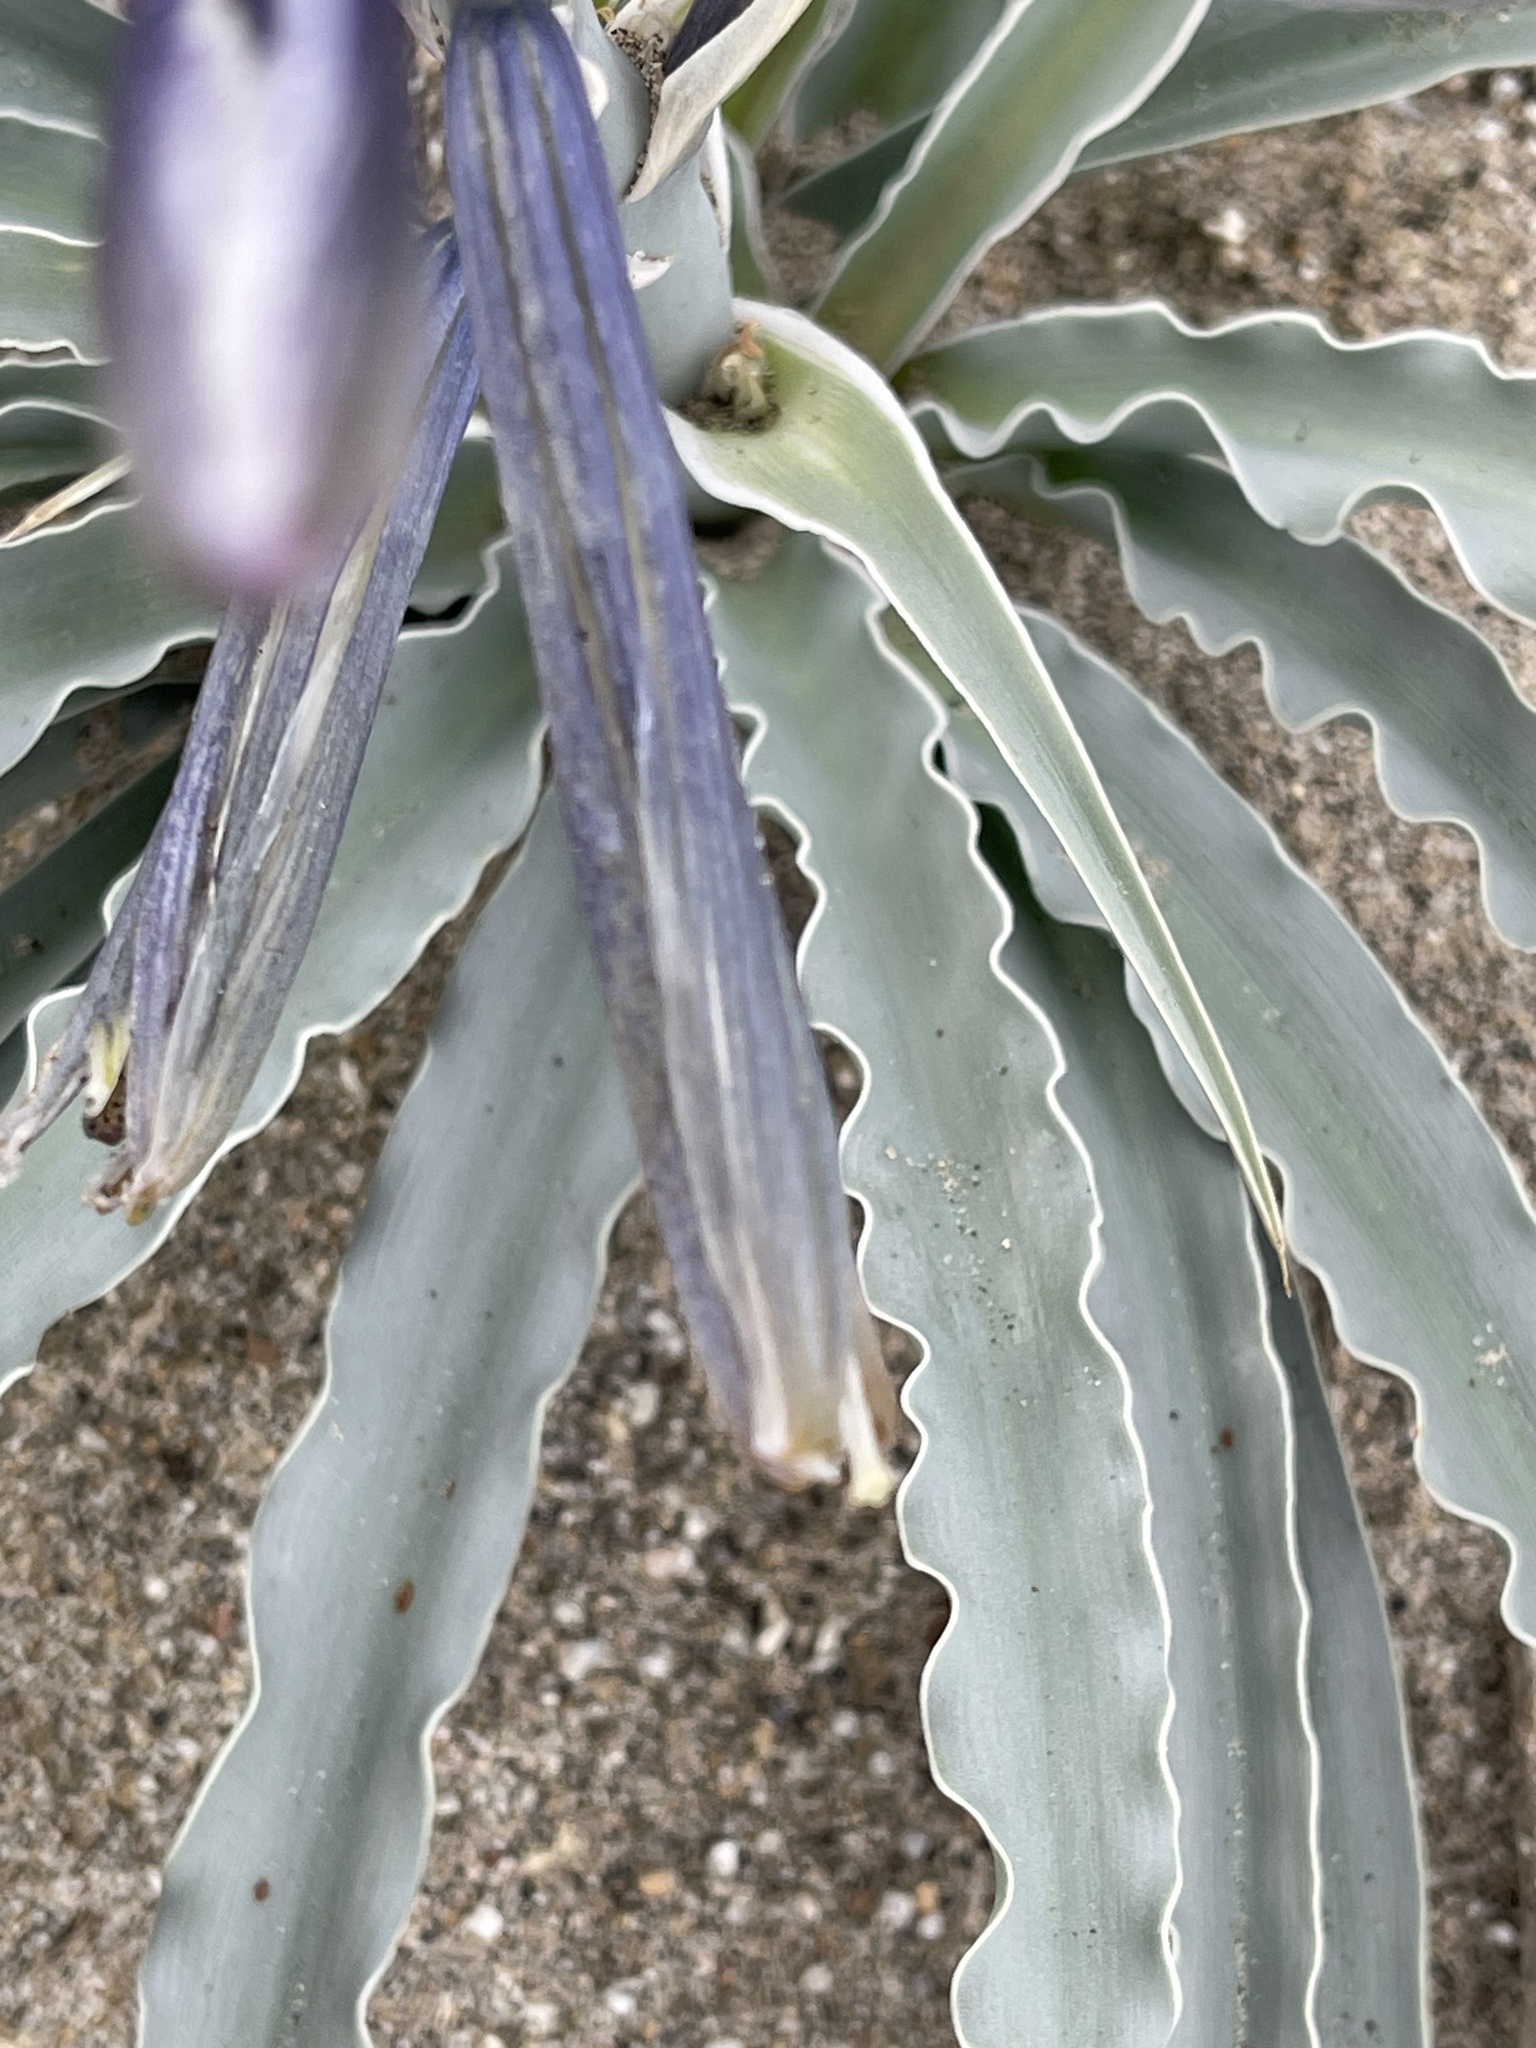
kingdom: Plantae
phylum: Tracheophyta
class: Liliopsida
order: Asparagales
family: Asparagaceae
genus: Hesperocallis
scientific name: Hesperocallis undulata
